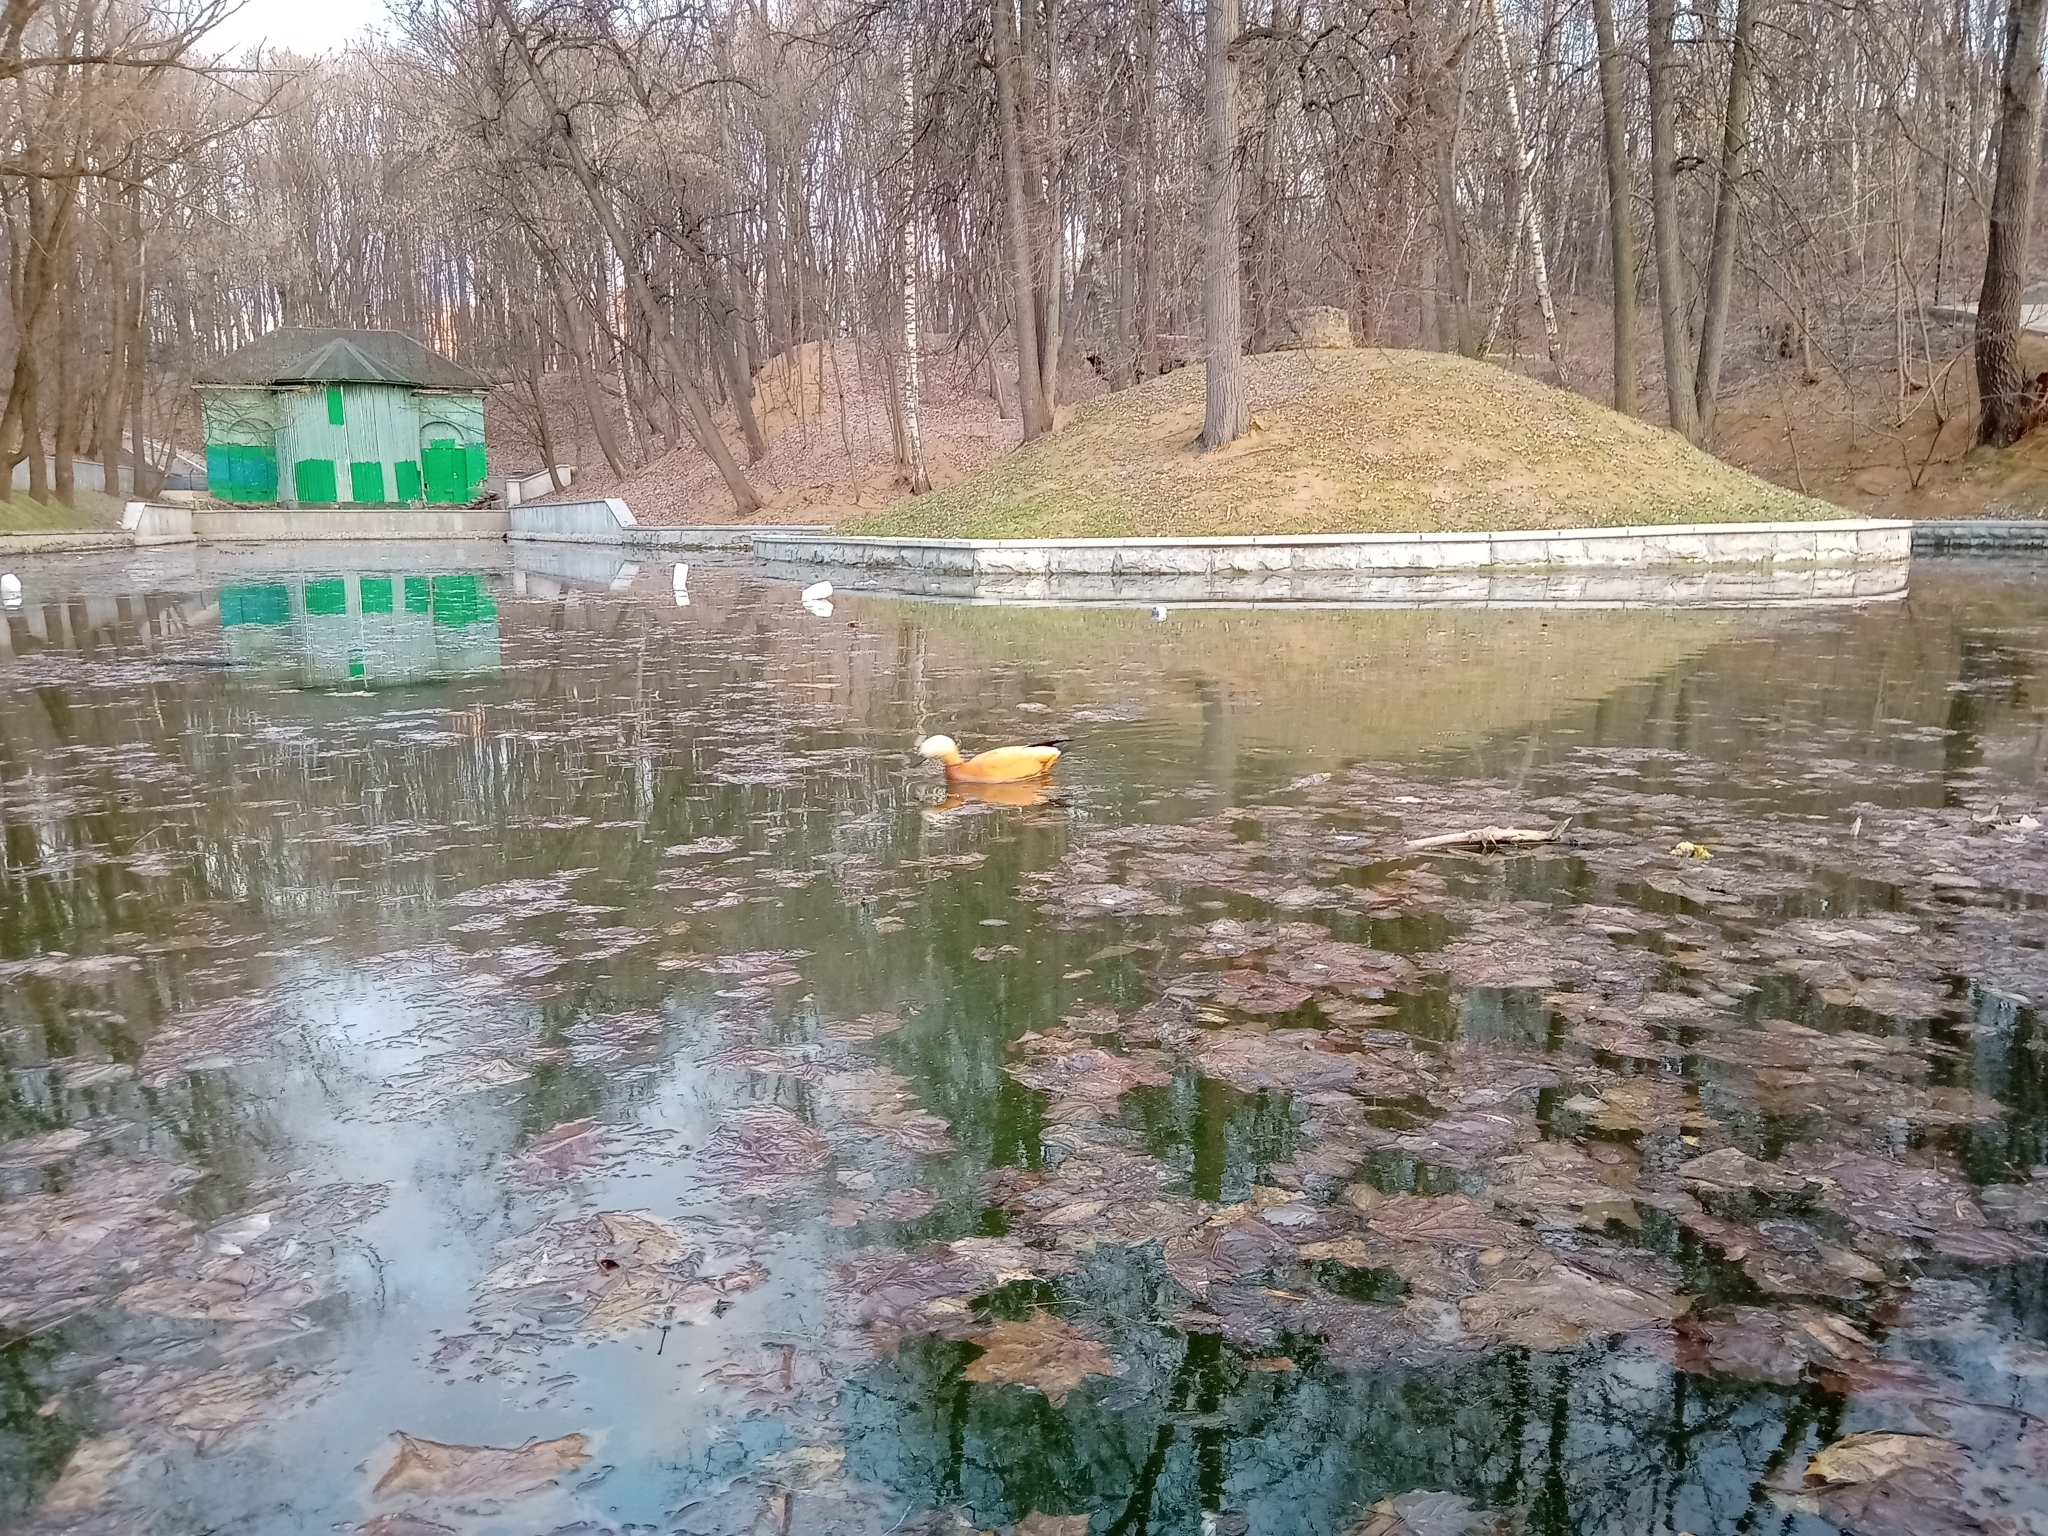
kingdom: Animalia
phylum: Chordata
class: Aves
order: Anseriformes
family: Anatidae
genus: Tadorna
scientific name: Tadorna ferruginea
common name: Ruddy shelduck
